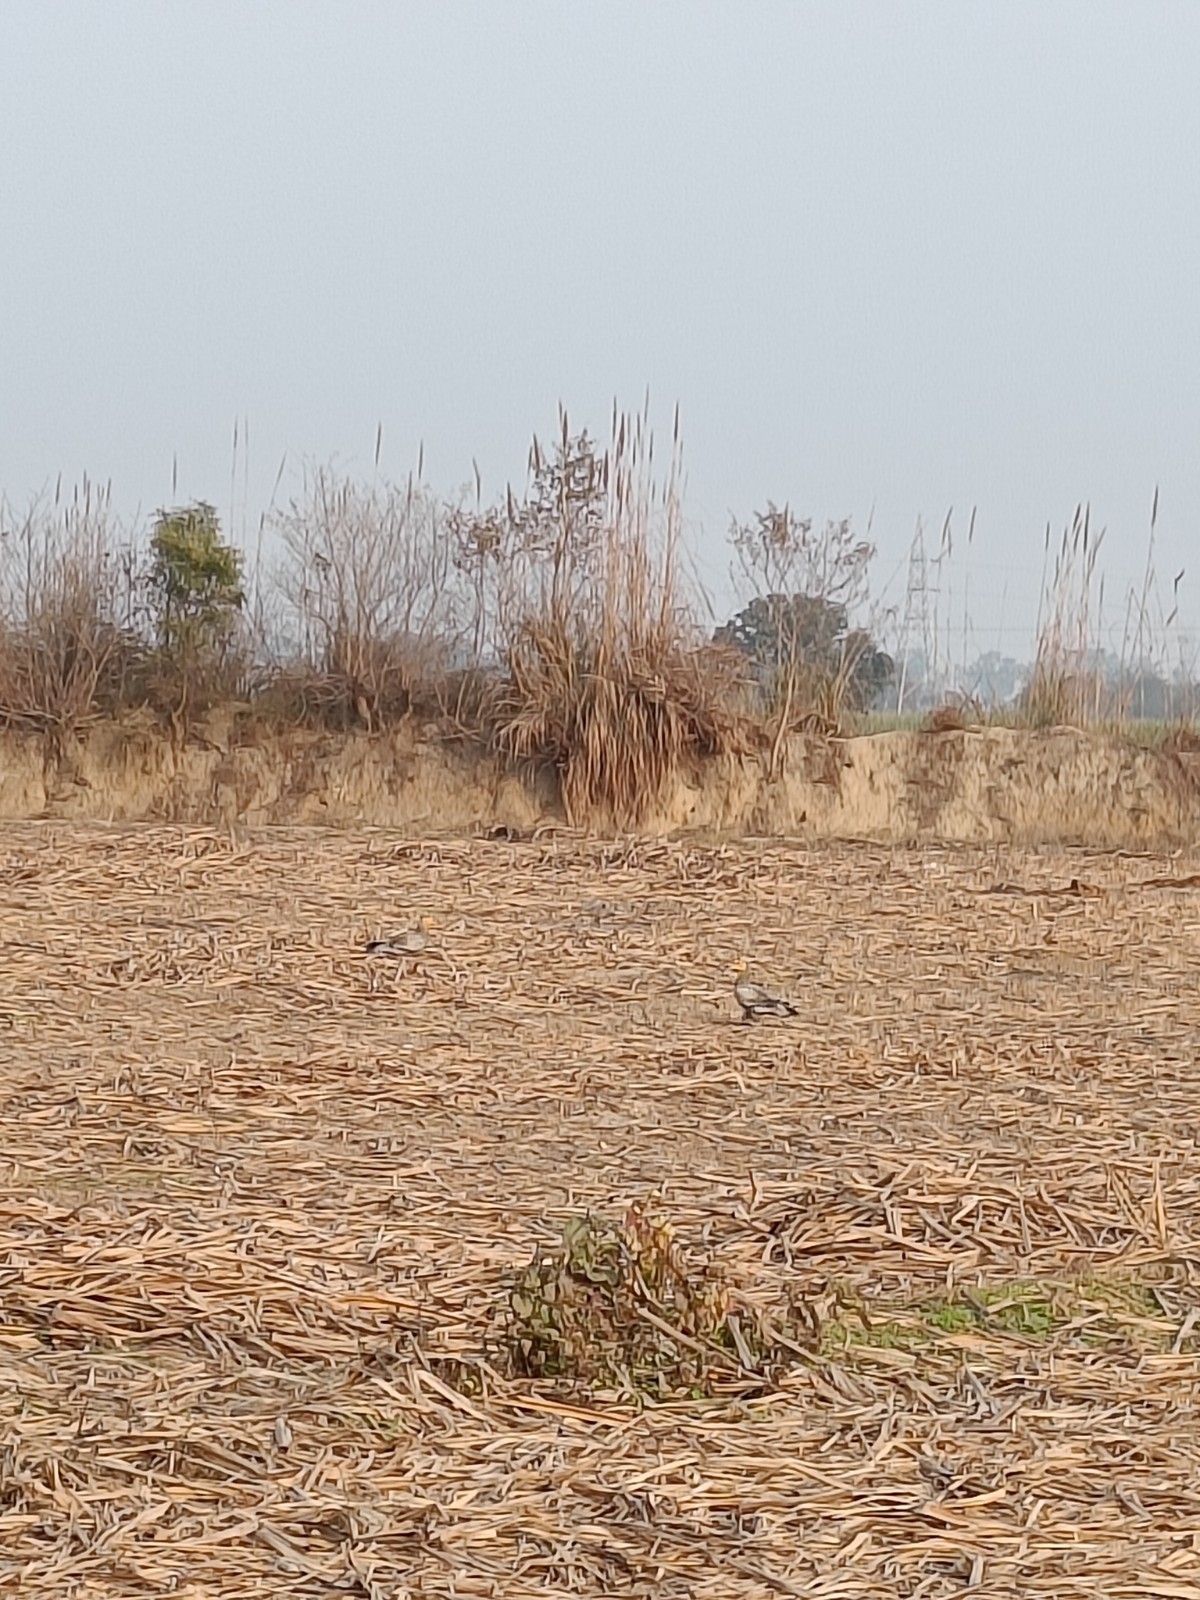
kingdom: Animalia
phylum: Chordata
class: Aves
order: Accipitriformes
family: Accipitridae
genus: Neophron
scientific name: Neophron percnopterus
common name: Egyptian vulture
